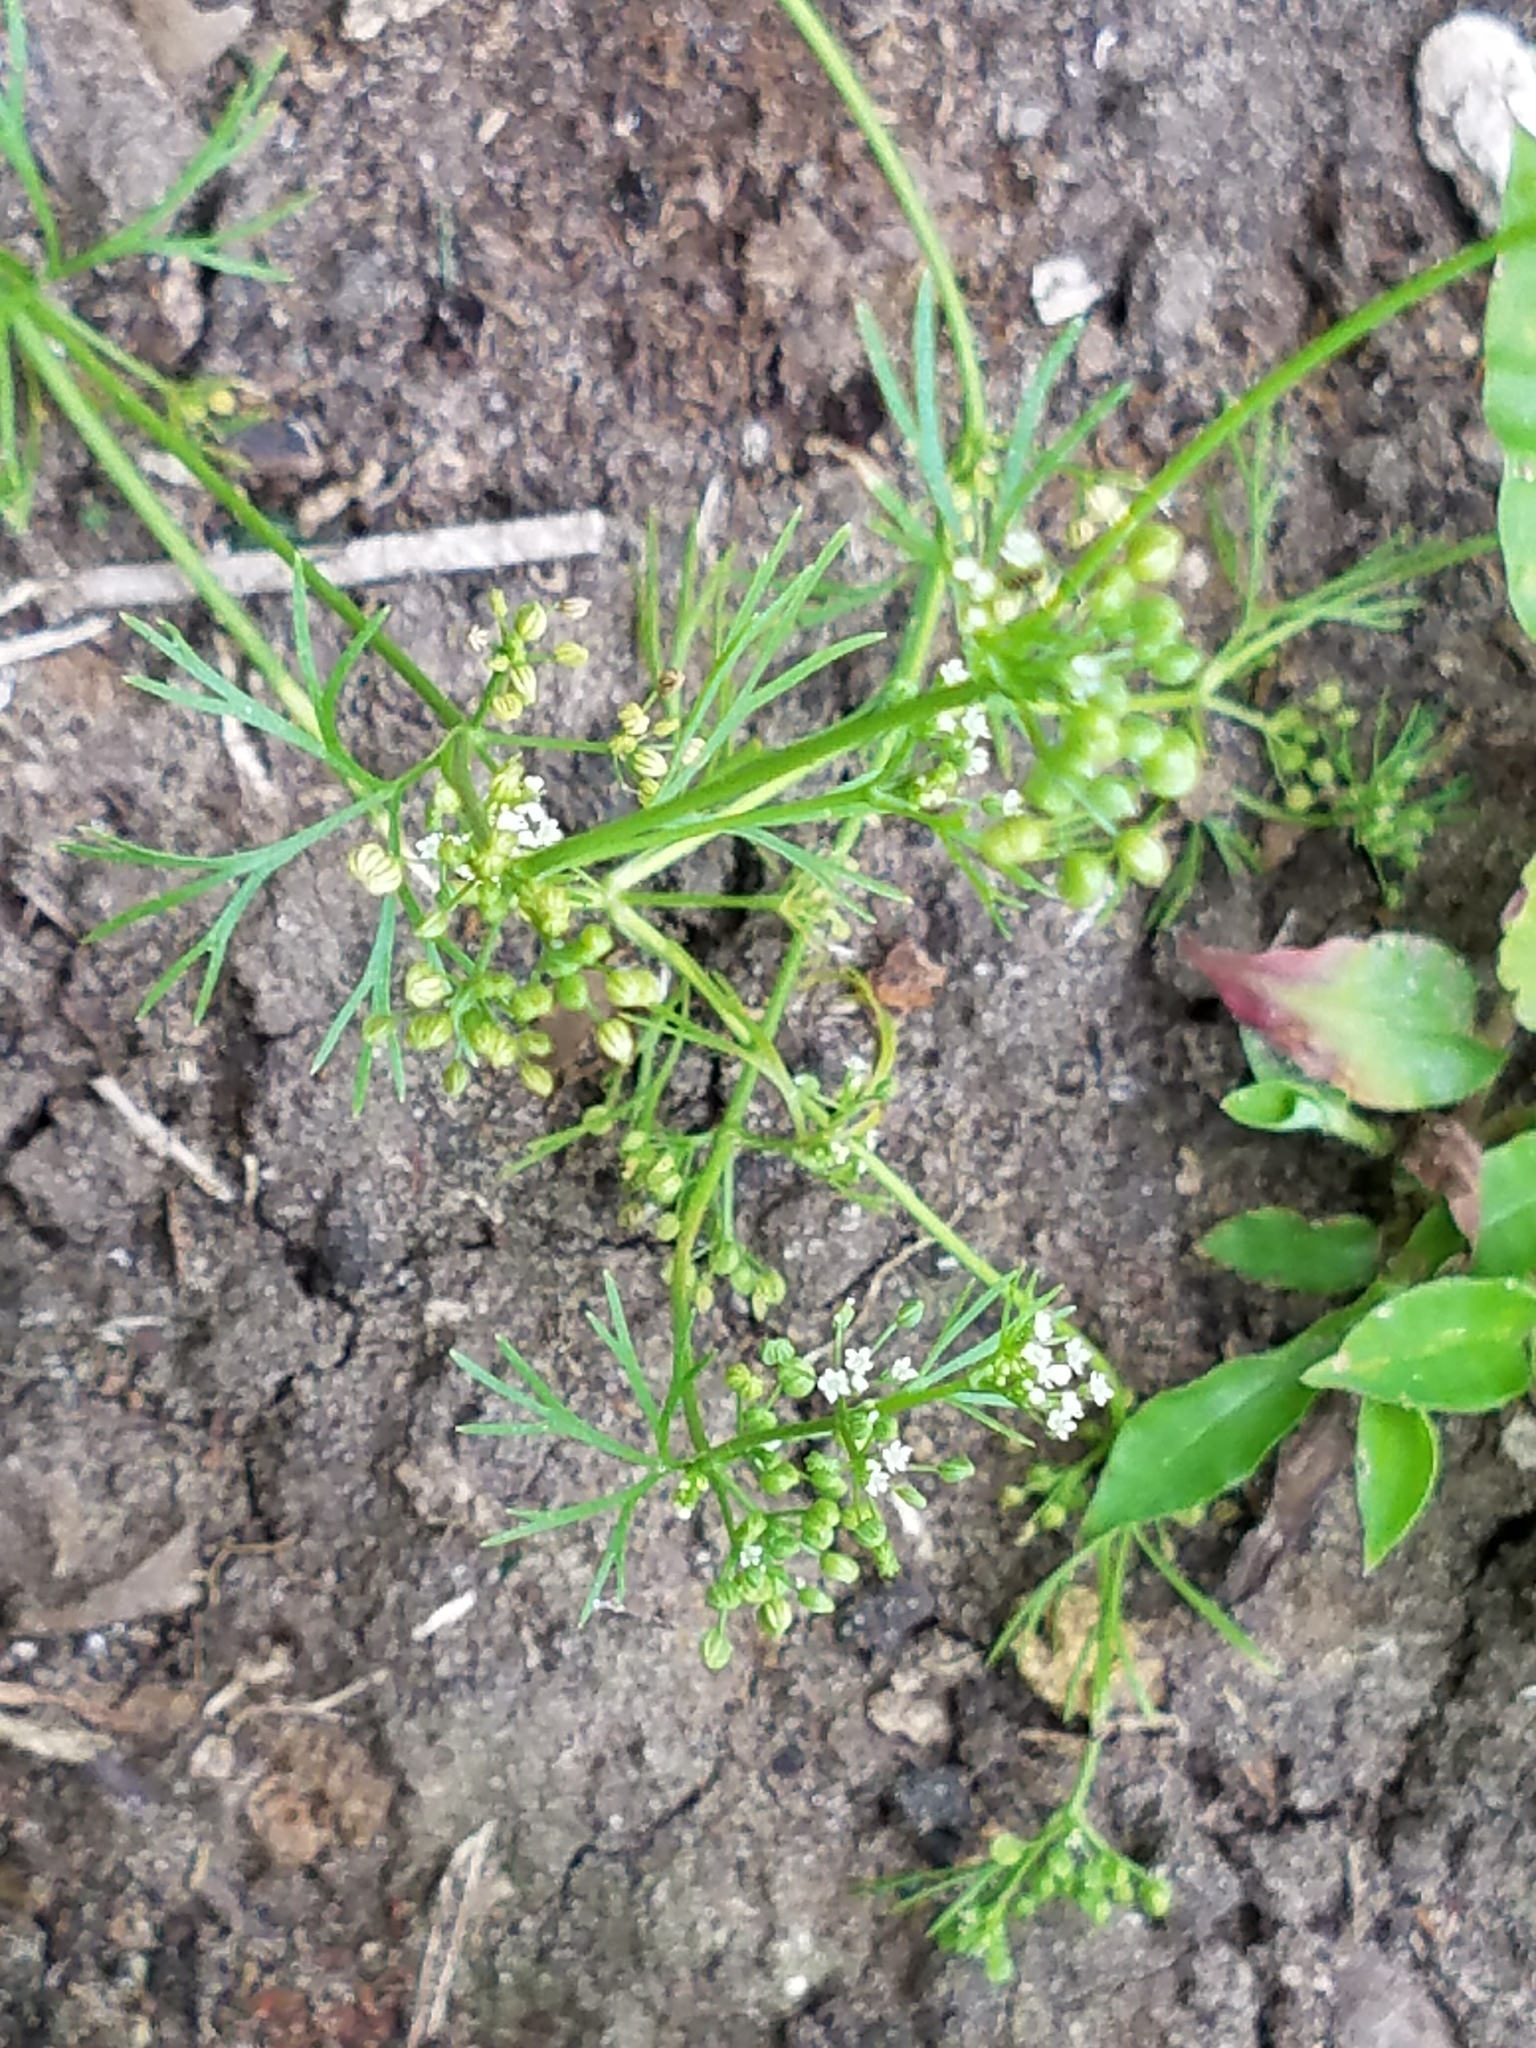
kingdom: Plantae
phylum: Tracheophyta
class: Magnoliopsida
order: Apiales
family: Apiaceae
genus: Ammoselinum
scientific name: Ammoselinum butleri
